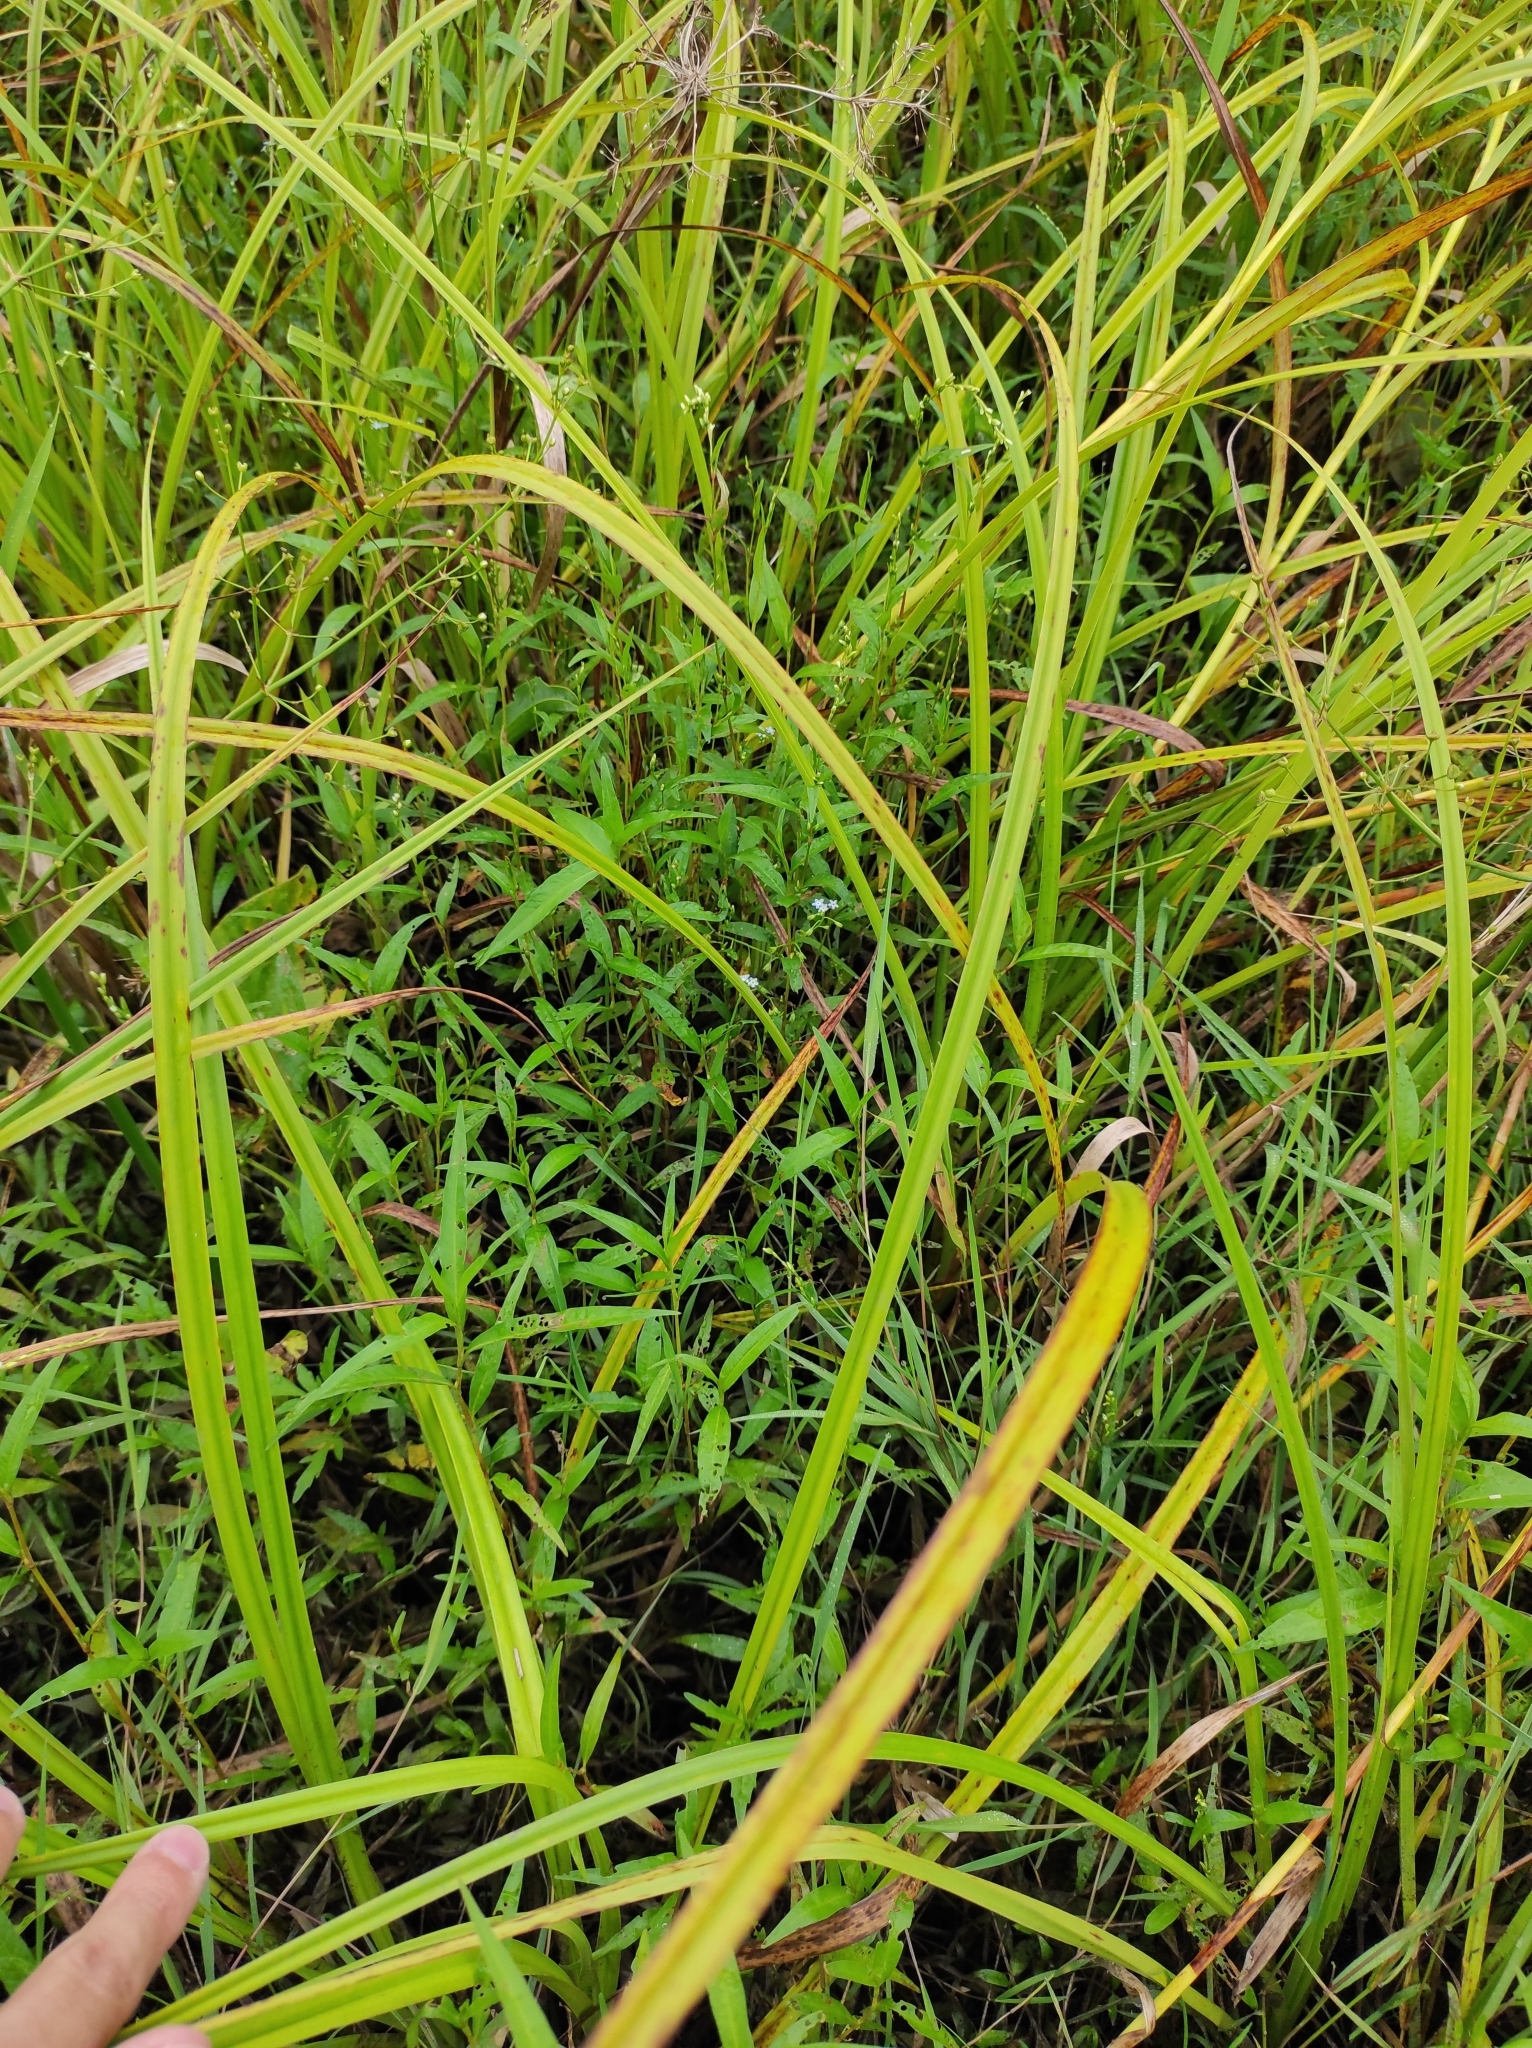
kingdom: Plantae
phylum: Tracheophyta
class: Magnoliopsida
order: Boraginales
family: Boraginaceae
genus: Myosotis
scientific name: Myosotis laxa
